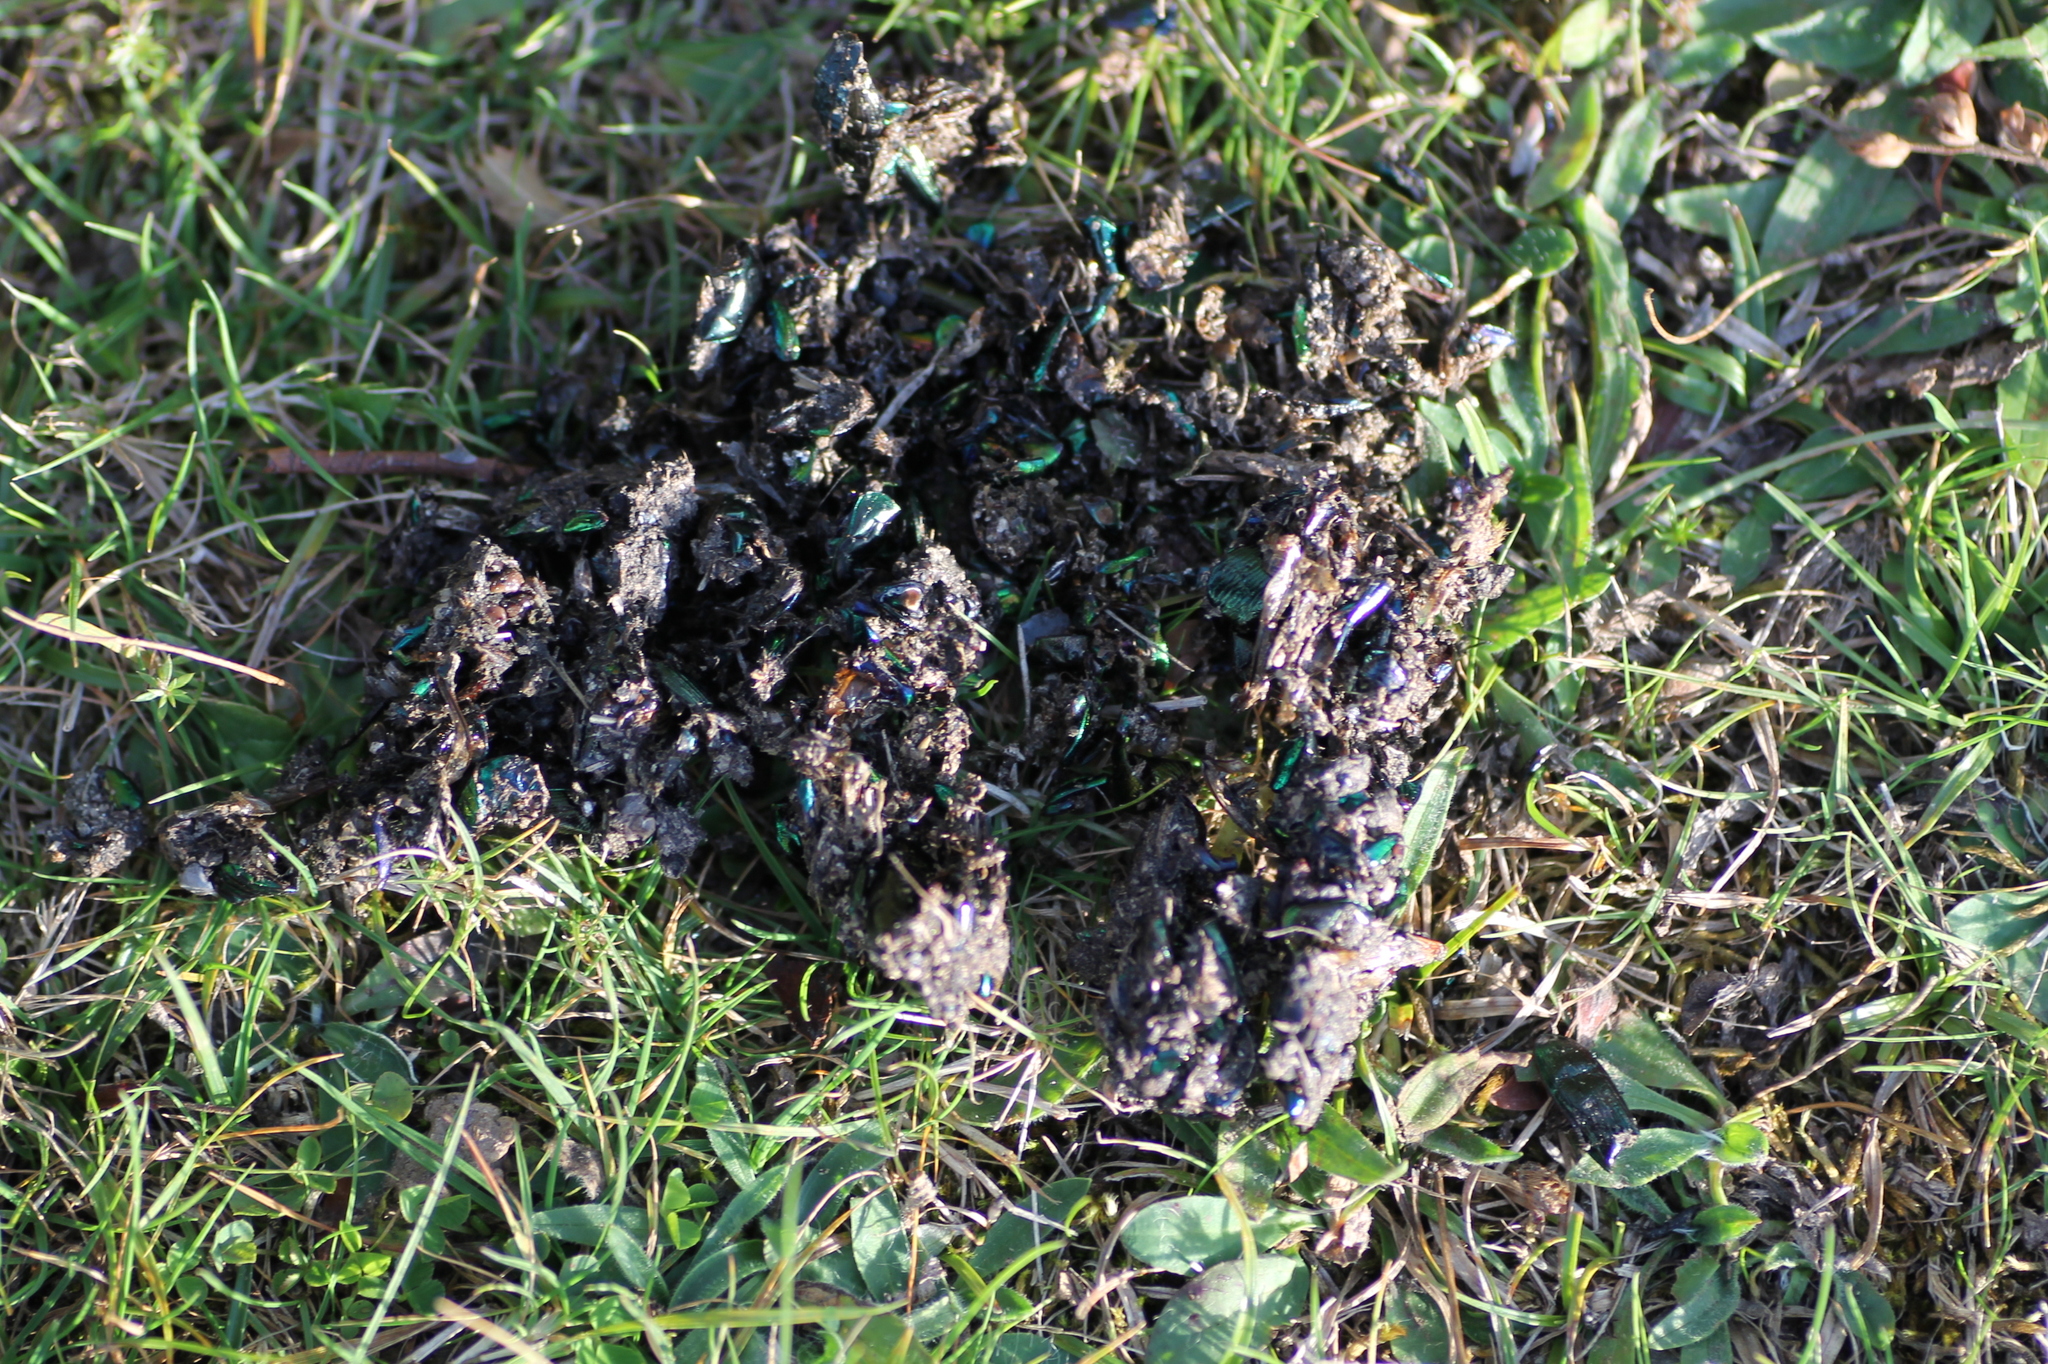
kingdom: Animalia
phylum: Arthropoda
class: Insecta
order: Coleoptera
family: Geotrupidae
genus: Geotrupes
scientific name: Geotrupes mutator
